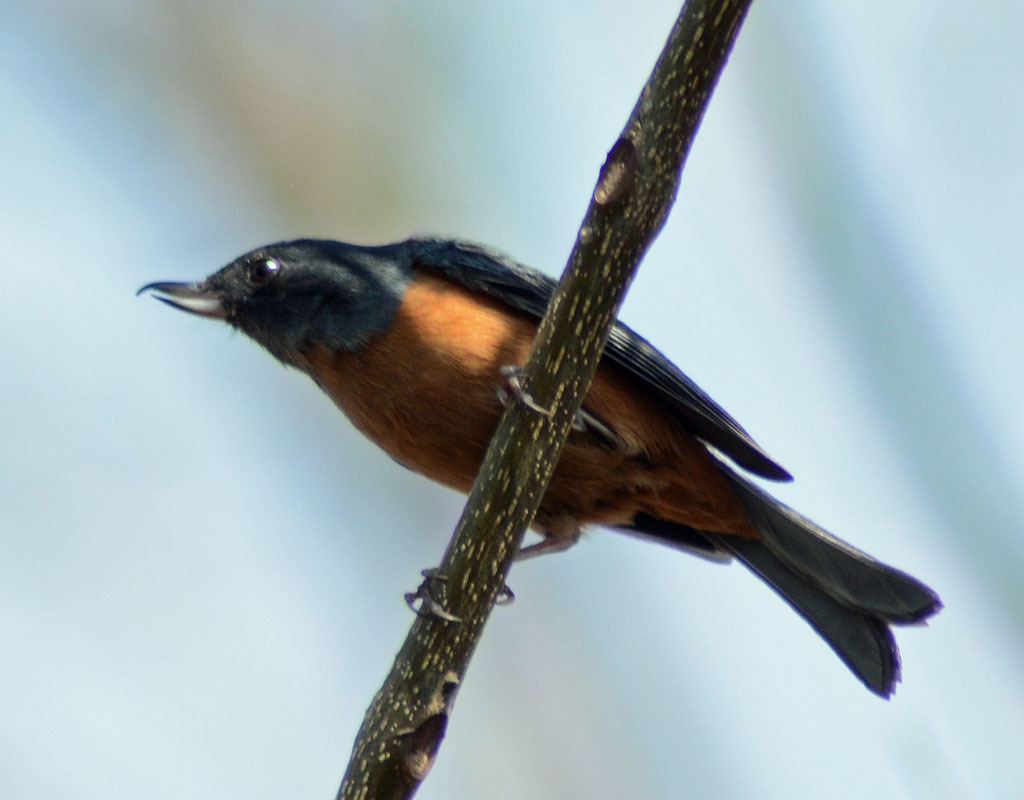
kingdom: Animalia
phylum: Chordata
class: Aves
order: Passeriformes
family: Thraupidae
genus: Diglossa
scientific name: Diglossa baritula
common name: Cinnamon-bellied flowerpiercer
